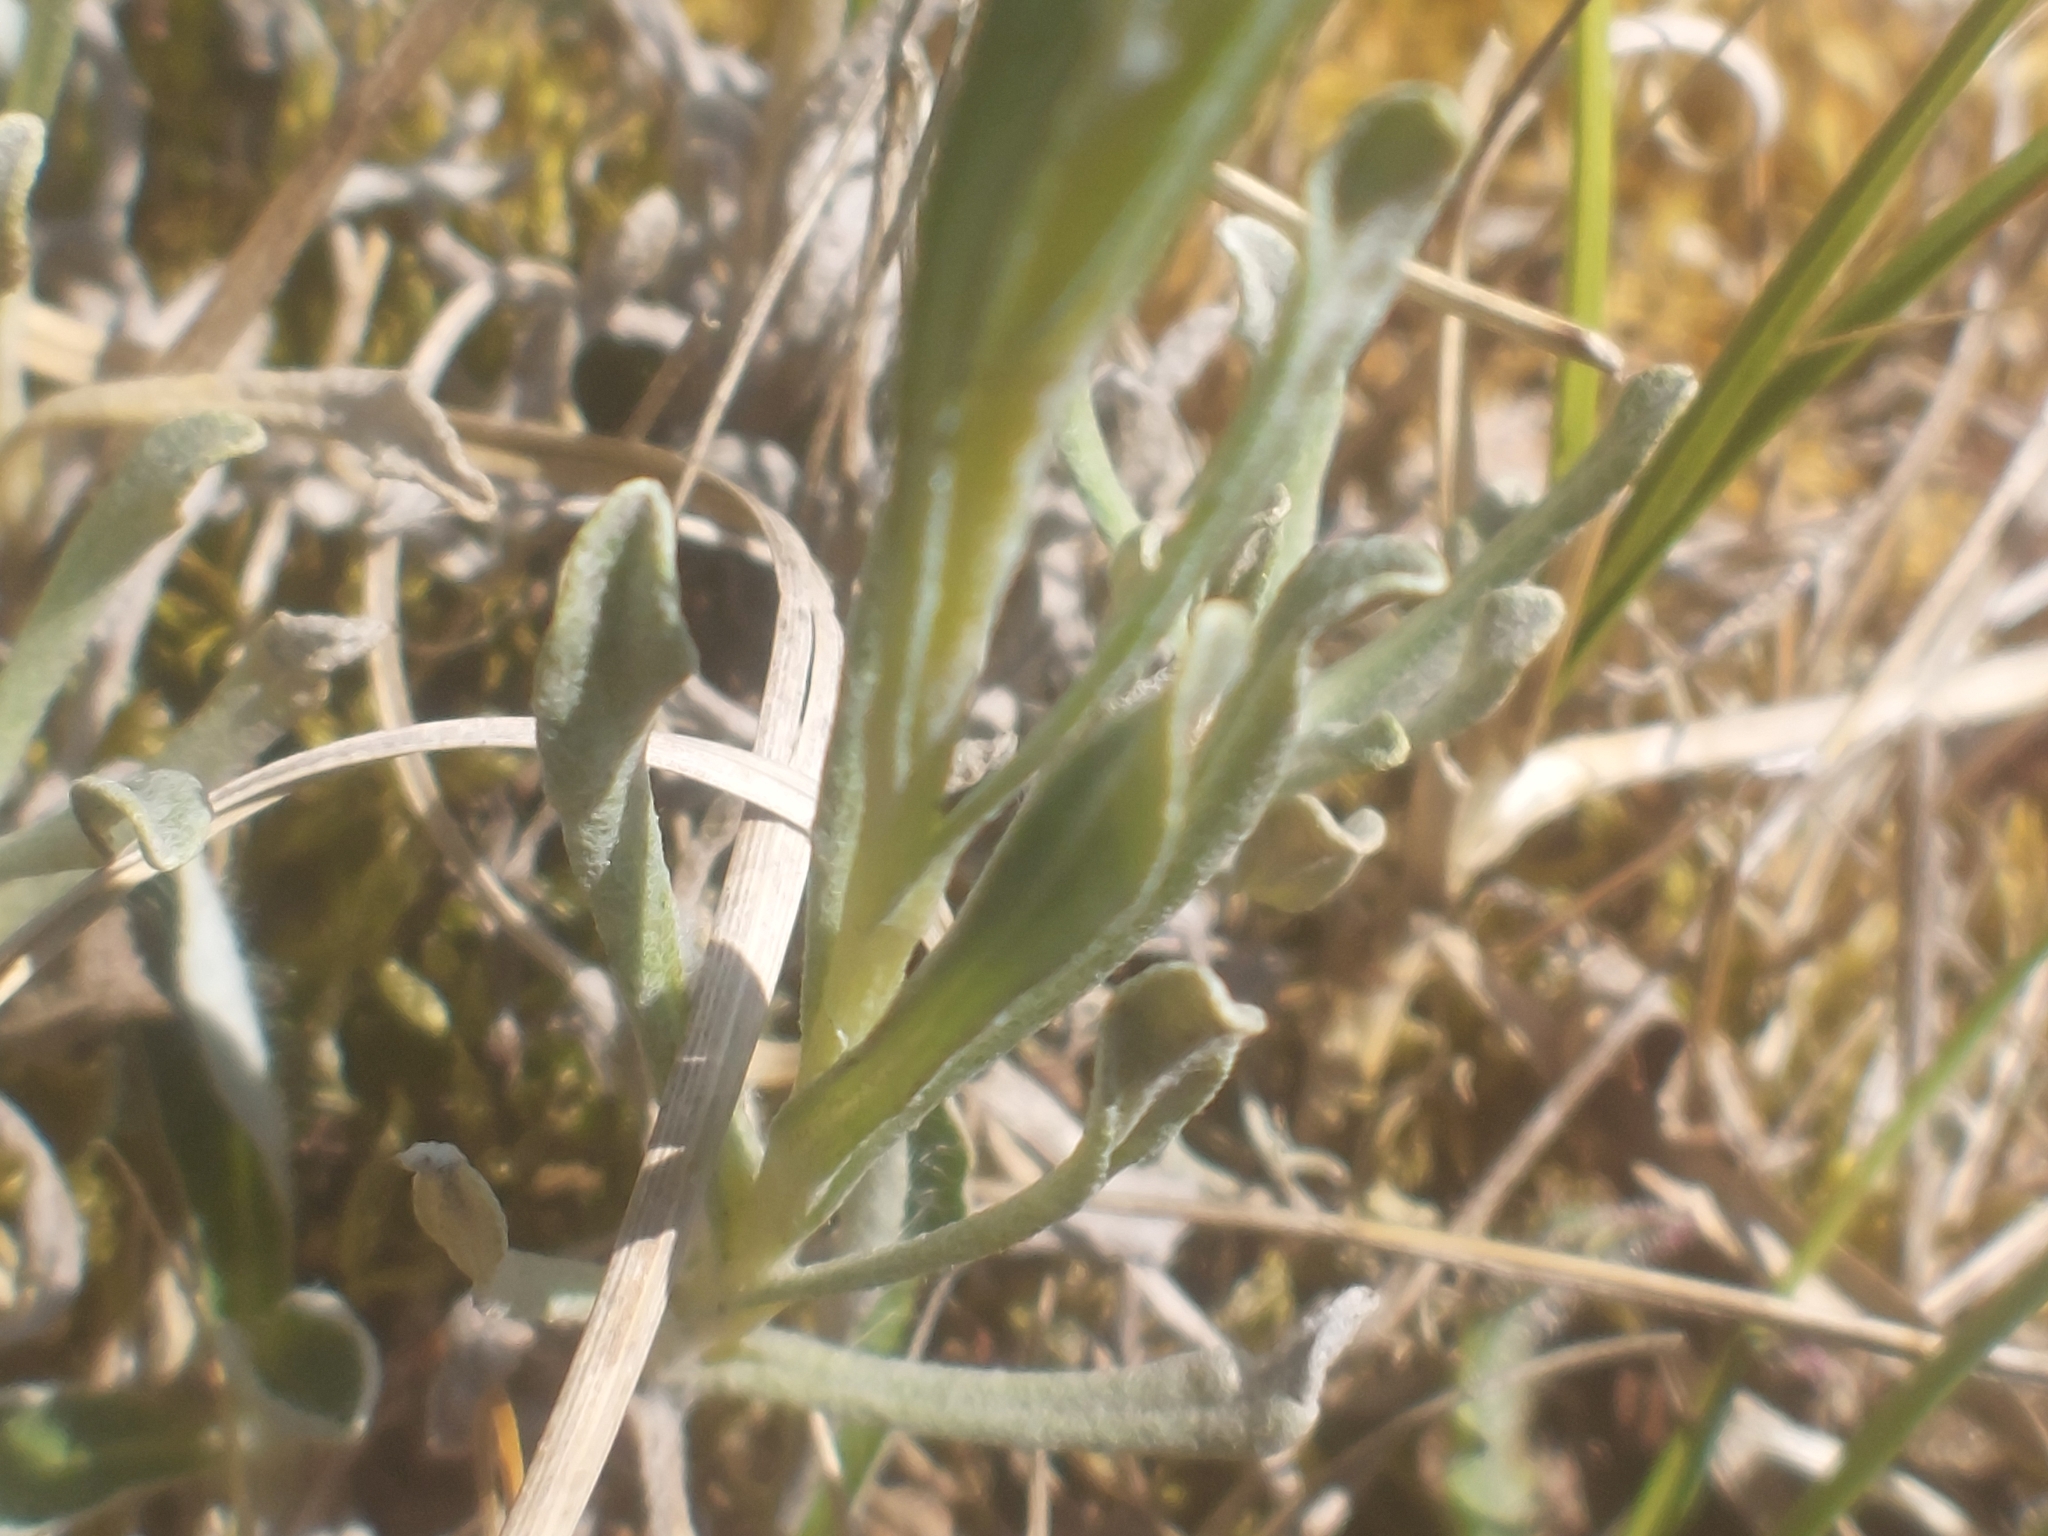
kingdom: Plantae
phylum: Tracheophyta
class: Magnoliopsida
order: Asterales
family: Asteraceae
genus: Helichrysum
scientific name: Helichrysum arenarium
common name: Strawflower
